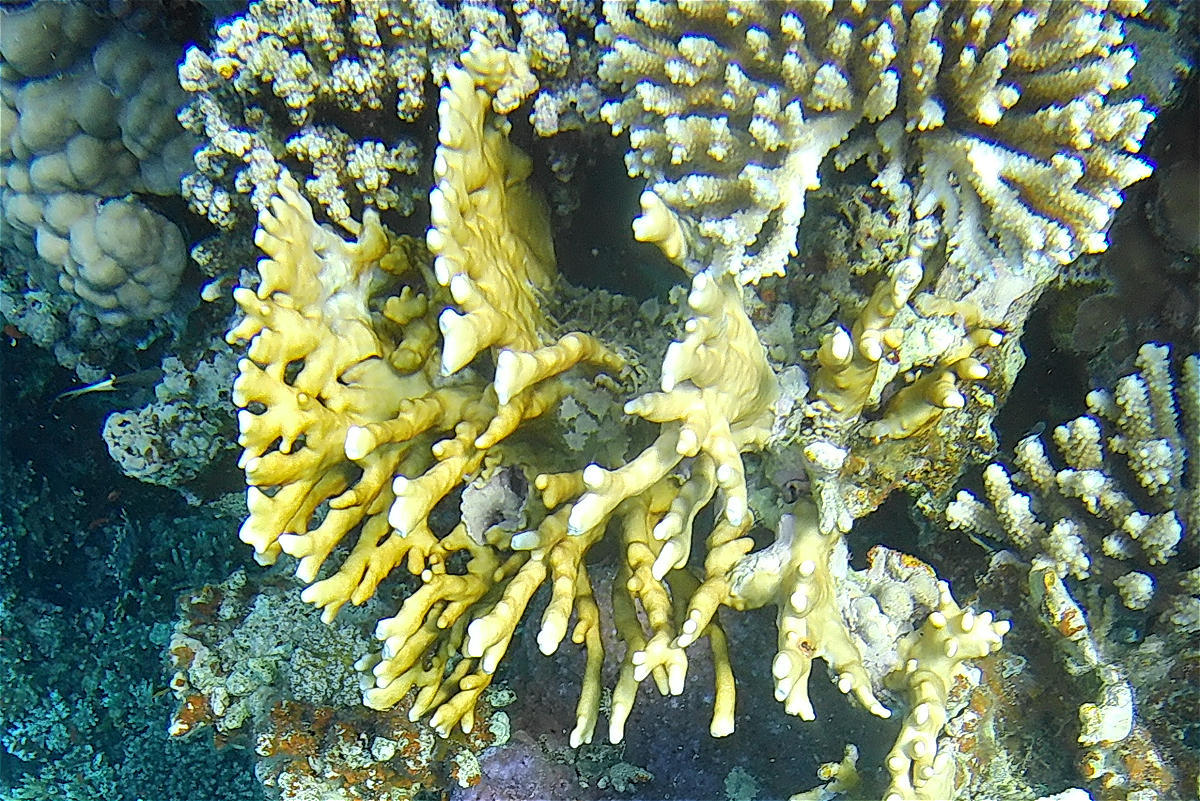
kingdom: Animalia
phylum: Cnidaria
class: Hydrozoa
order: Anthoathecata
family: Milleporidae
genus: Millepora
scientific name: Millepora dichotoma
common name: Ramified fire coral
